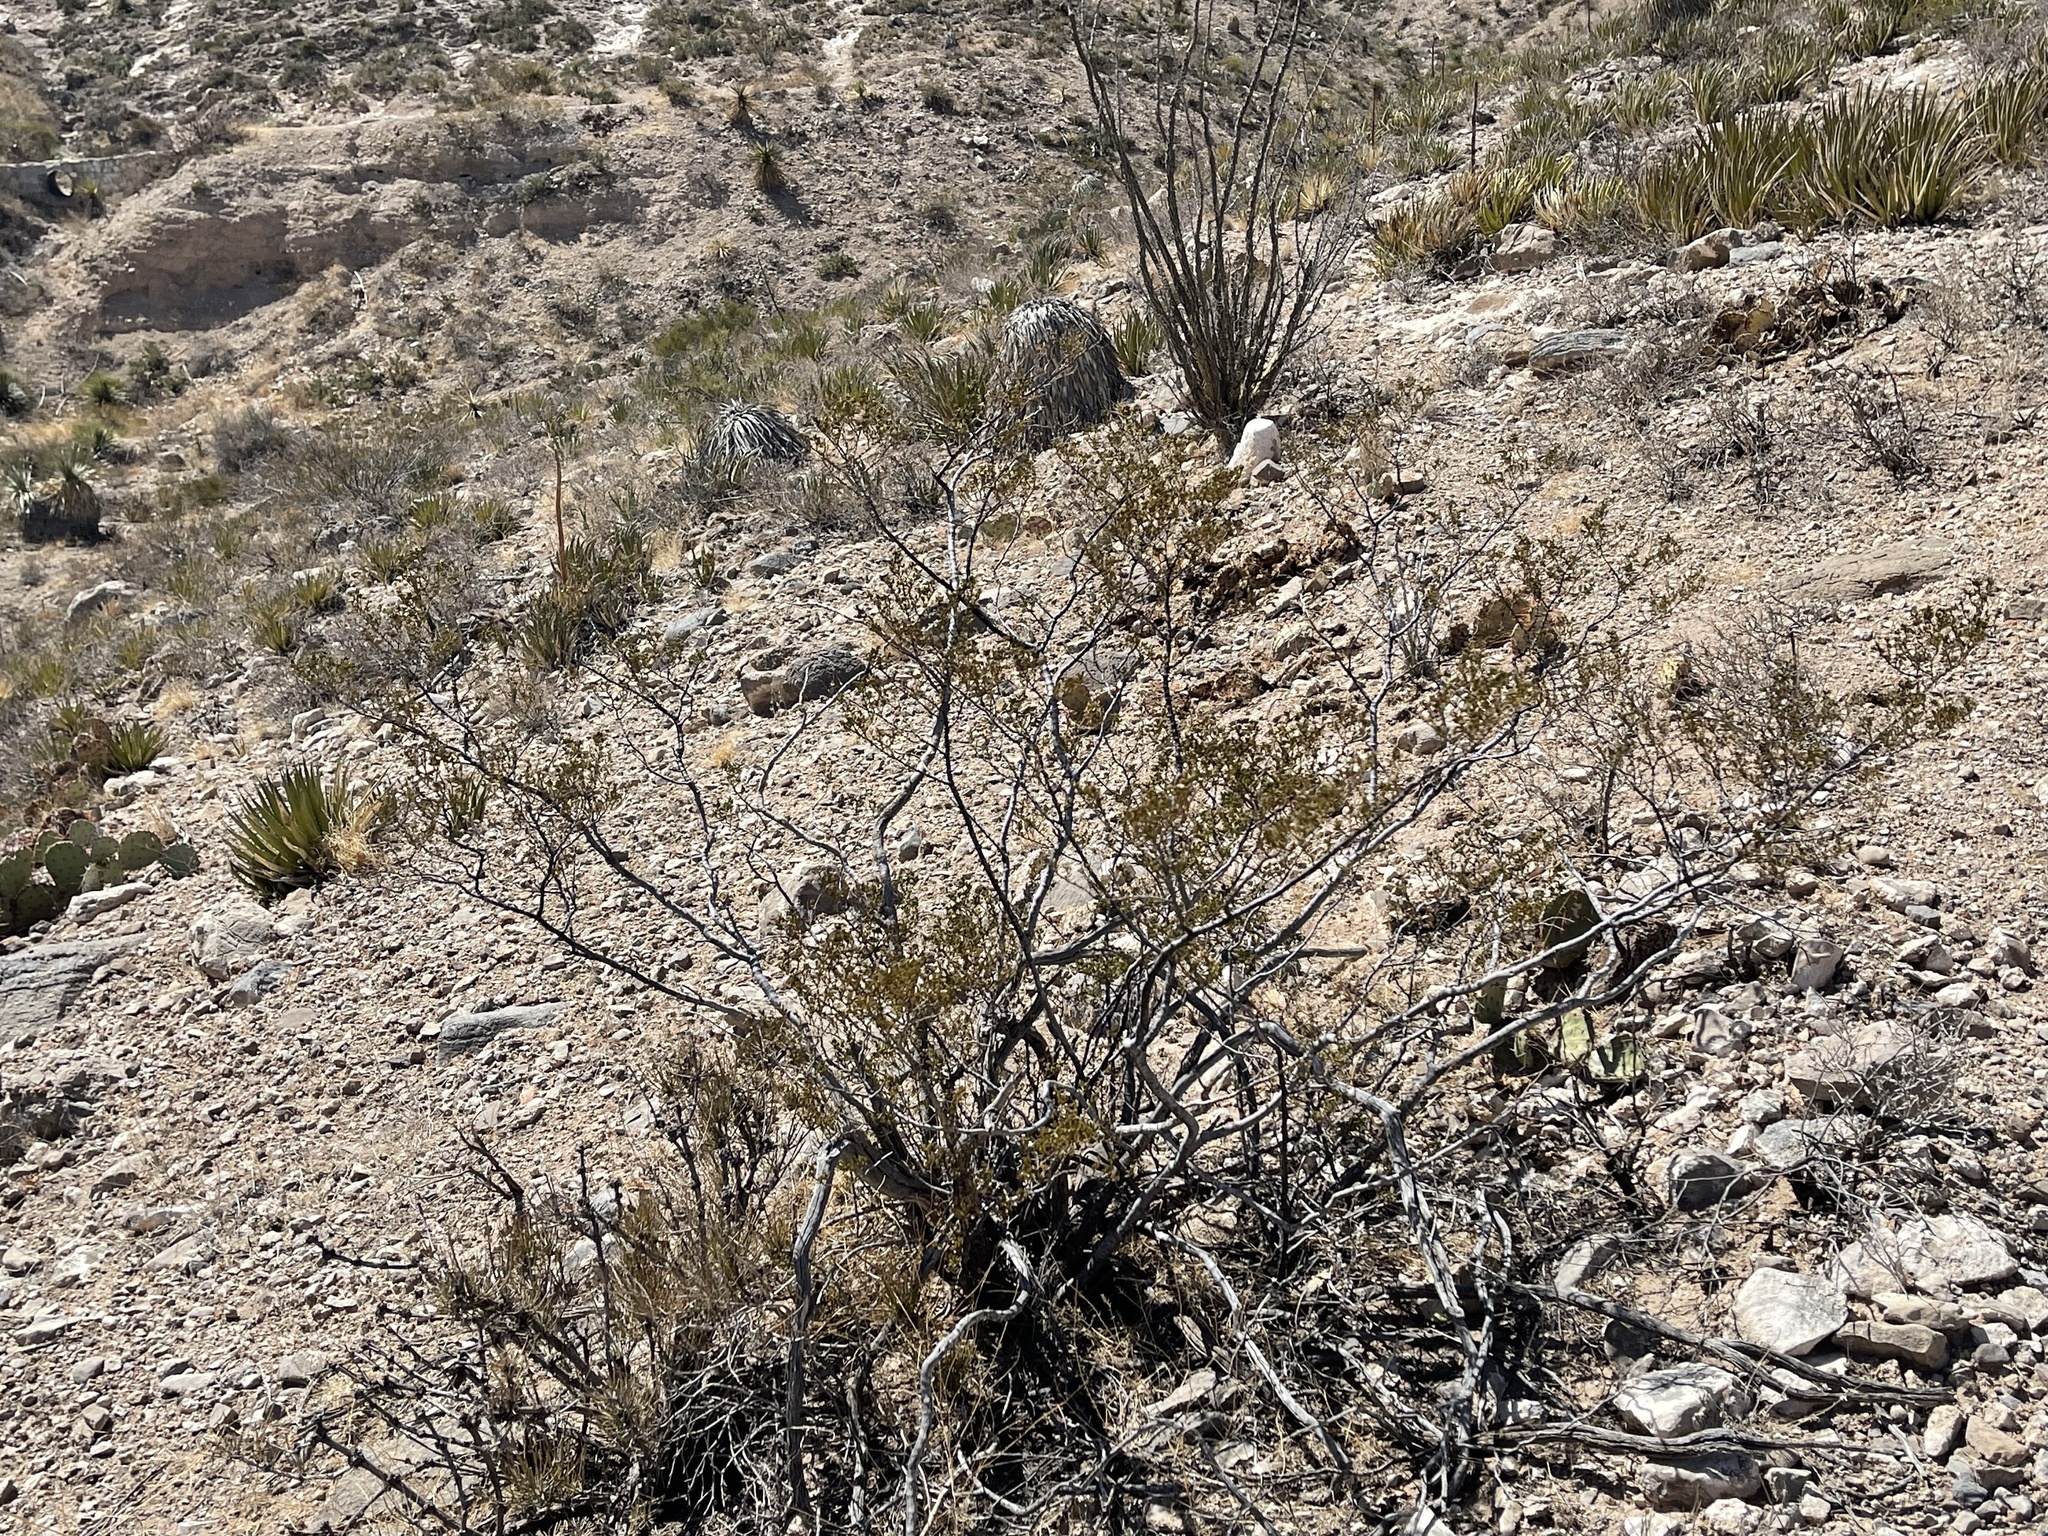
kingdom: Plantae
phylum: Tracheophyta
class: Magnoliopsida
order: Zygophyllales
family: Zygophyllaceae
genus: Larrea
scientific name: Larrea tridentata
